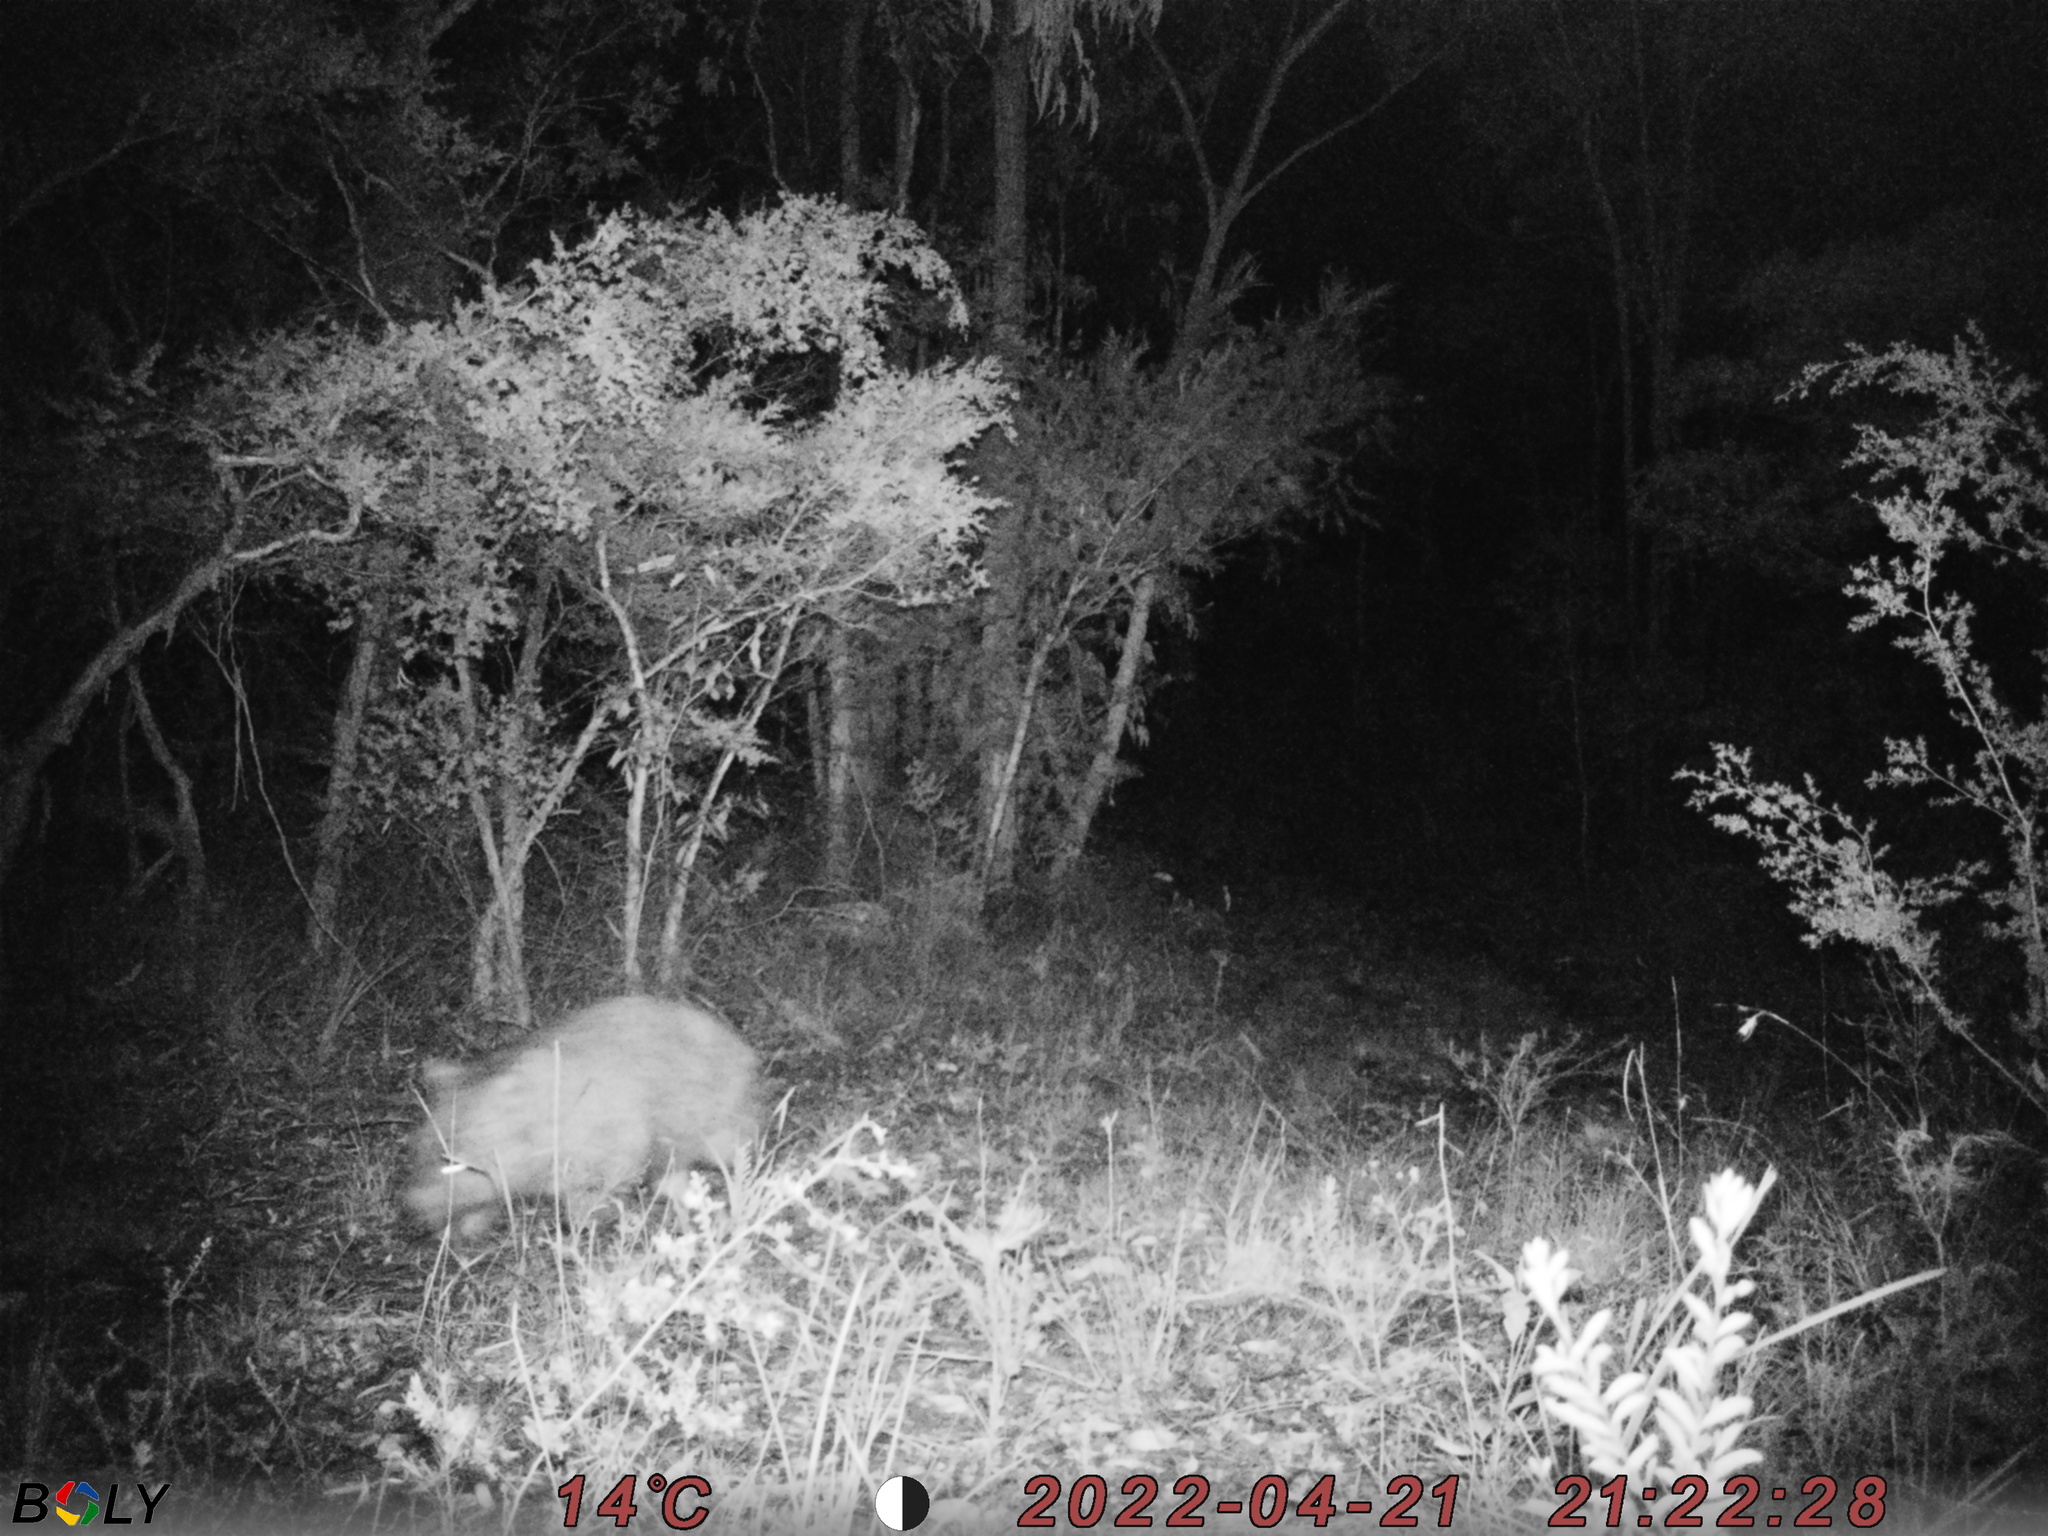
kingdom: Animalia
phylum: Chordata
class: Mammalia
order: Diprotodontia
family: Vombatidae
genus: Vombatus
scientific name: Vombatus ursinus
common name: Common wombat
